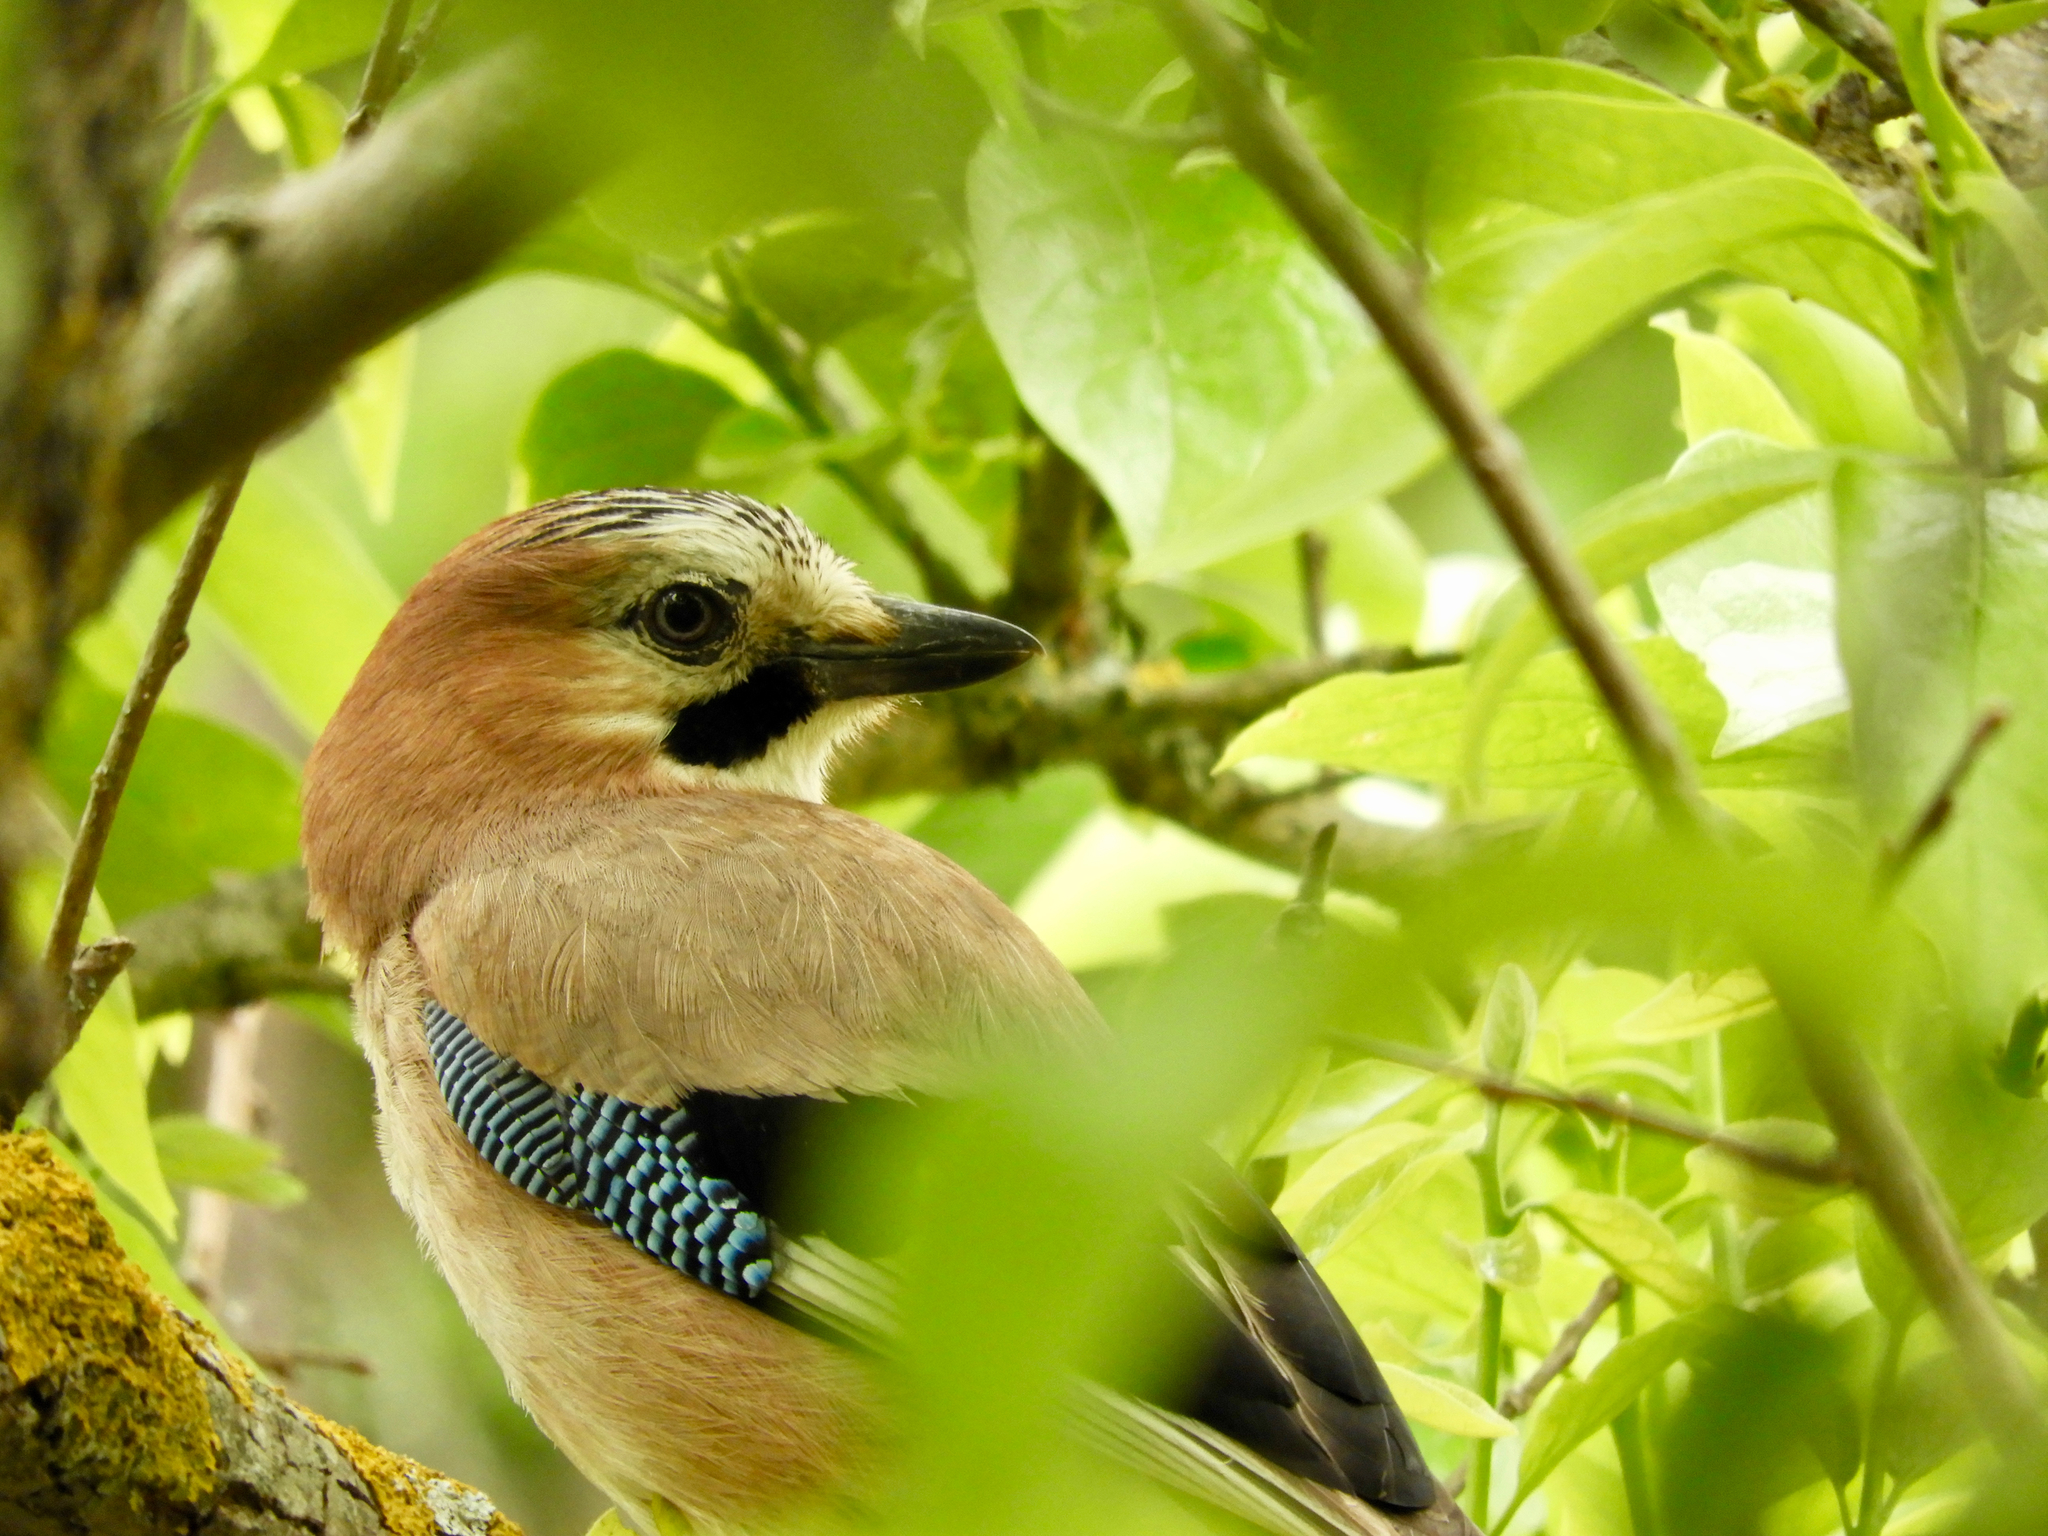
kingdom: Animalia
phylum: Chordata
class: Aves
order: Passeriformes
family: Corvidae
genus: Garrulus
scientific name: Garrulus glandarius
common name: Eurasian jay
